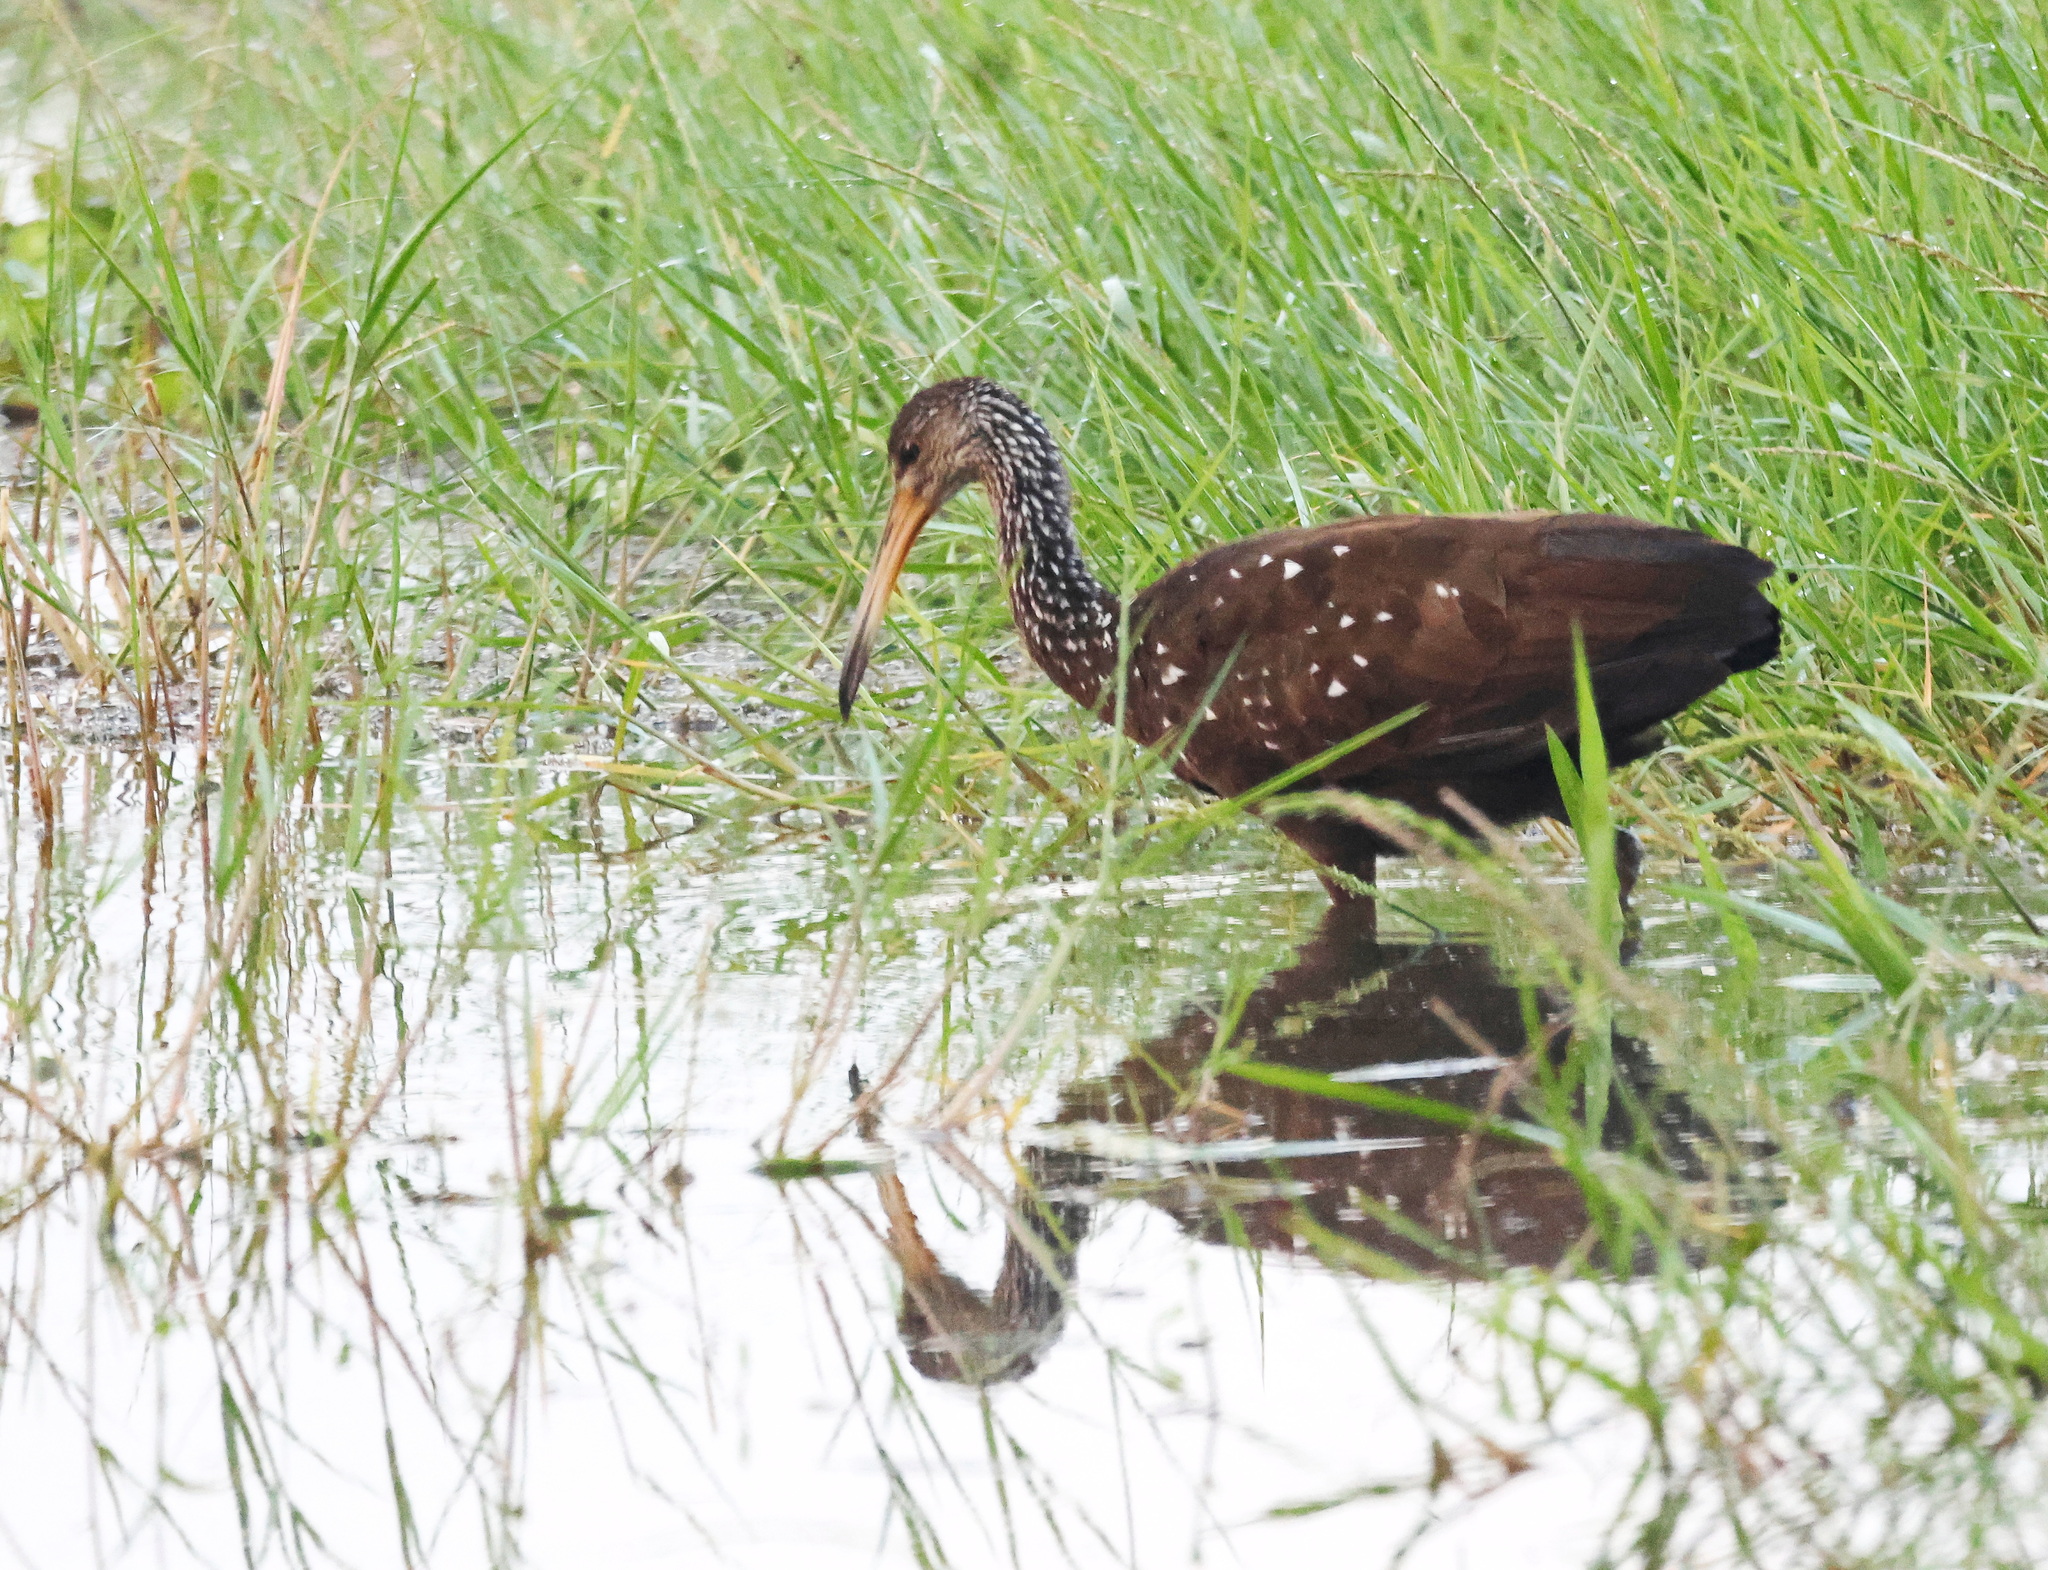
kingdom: Animalia
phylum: Chordata
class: Aves
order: Gruiformes
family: Aramidae
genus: Aramus
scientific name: Aramus guarauna
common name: Limpkin
